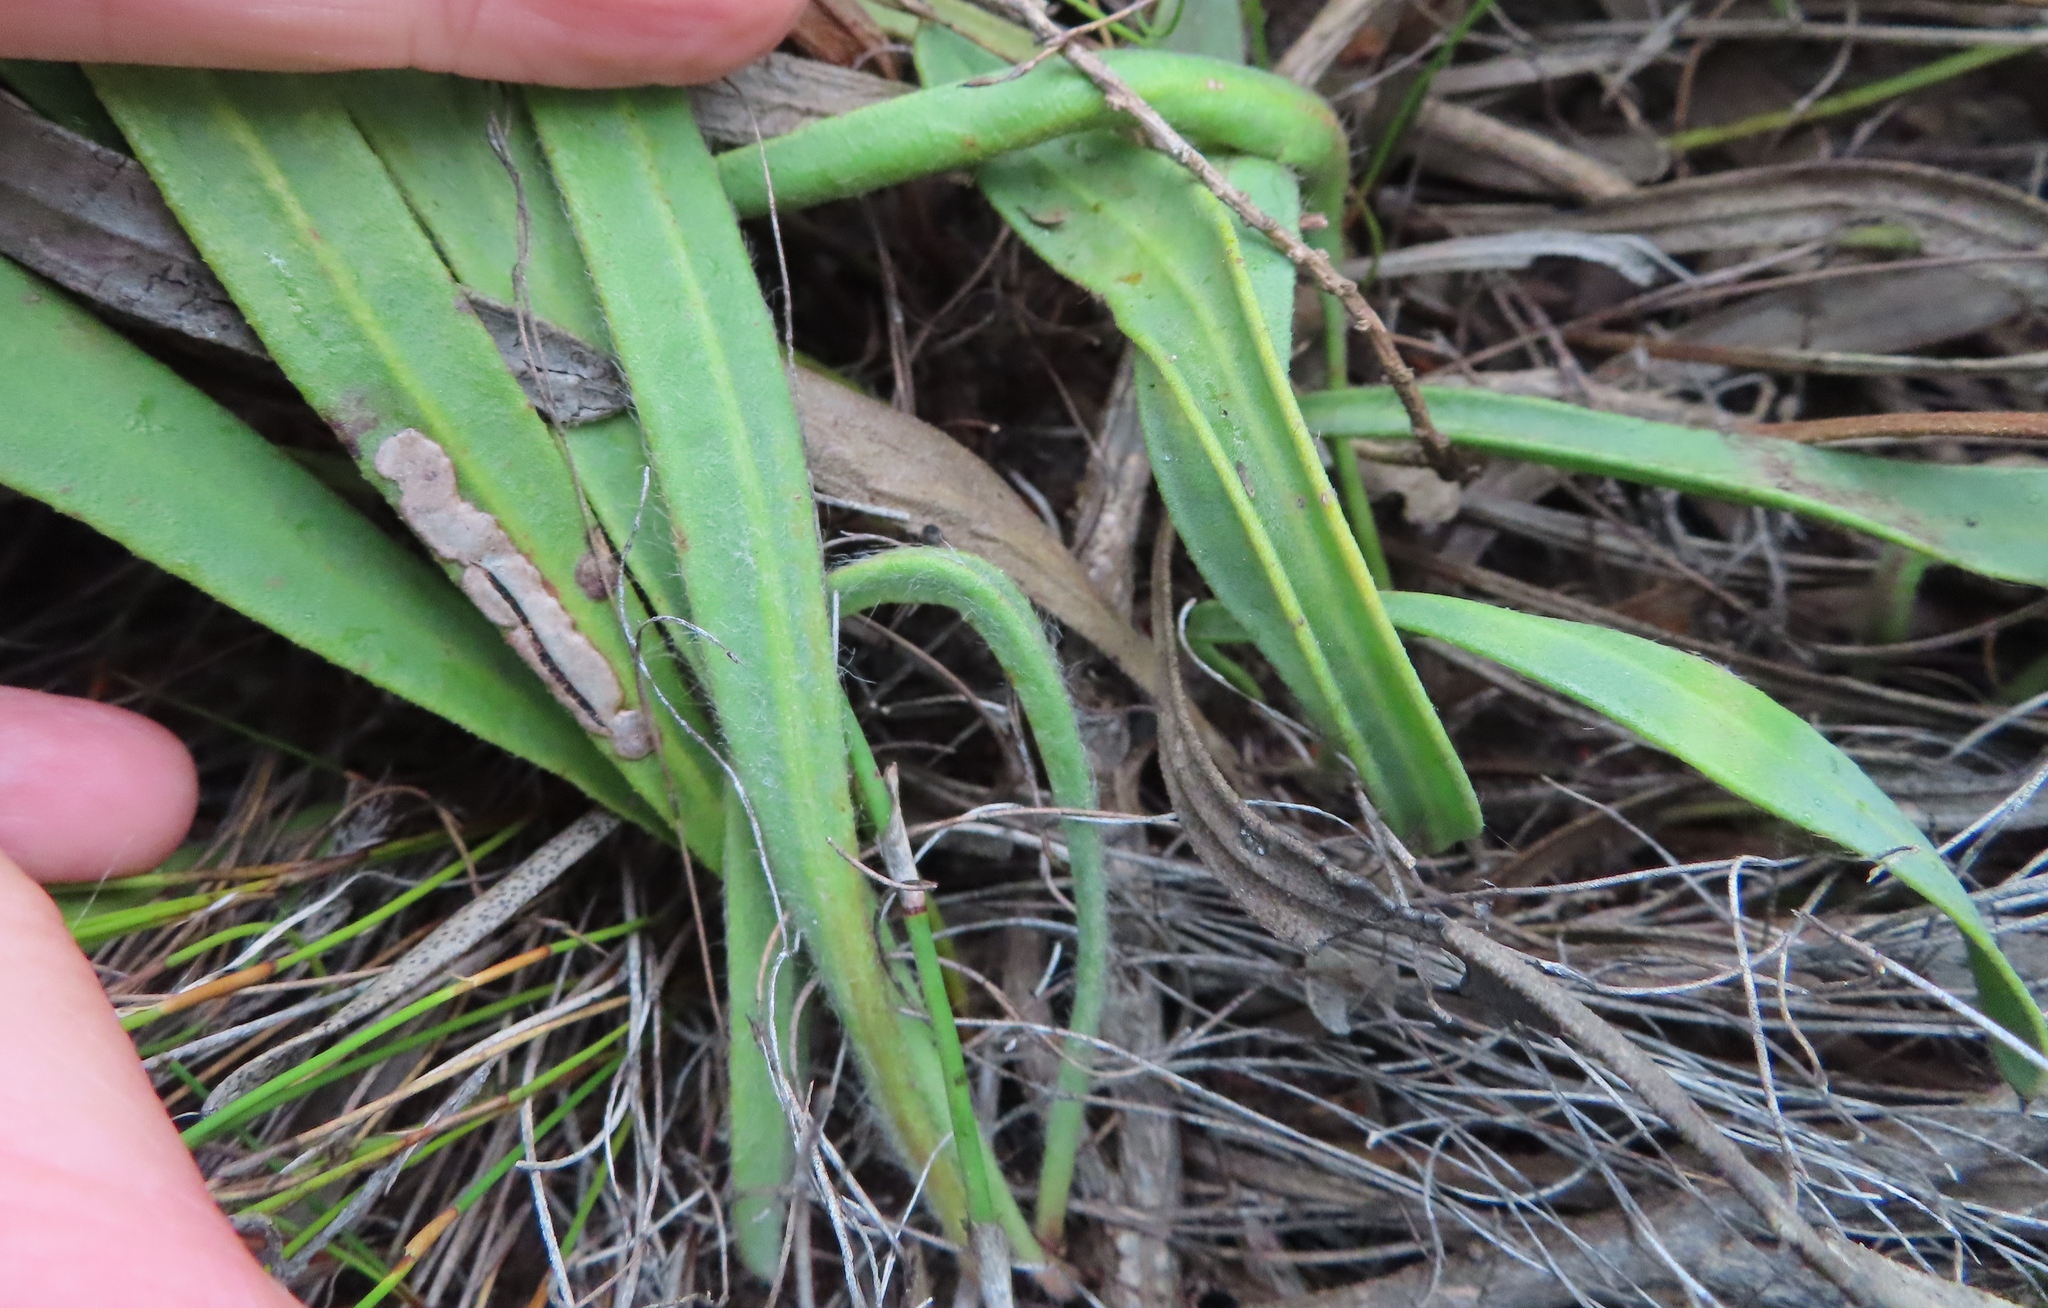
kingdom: Plantae
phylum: Tracheophyta
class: Magnoliopsida
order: Proteales
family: Proteaceae
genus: Protea
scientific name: Protea aspera
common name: Rough-leaf sugarbush
